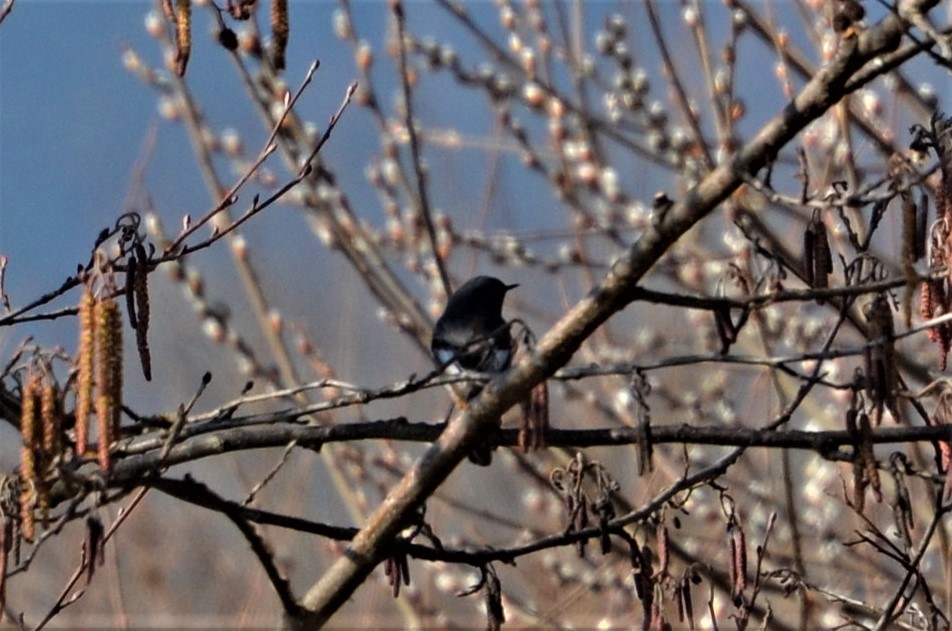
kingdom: Animalia
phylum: Chordata
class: Aves
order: Passeriformes
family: Muscicapidae
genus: Phoenicurus
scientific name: Phoenicurus ochruros
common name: Black redstart
